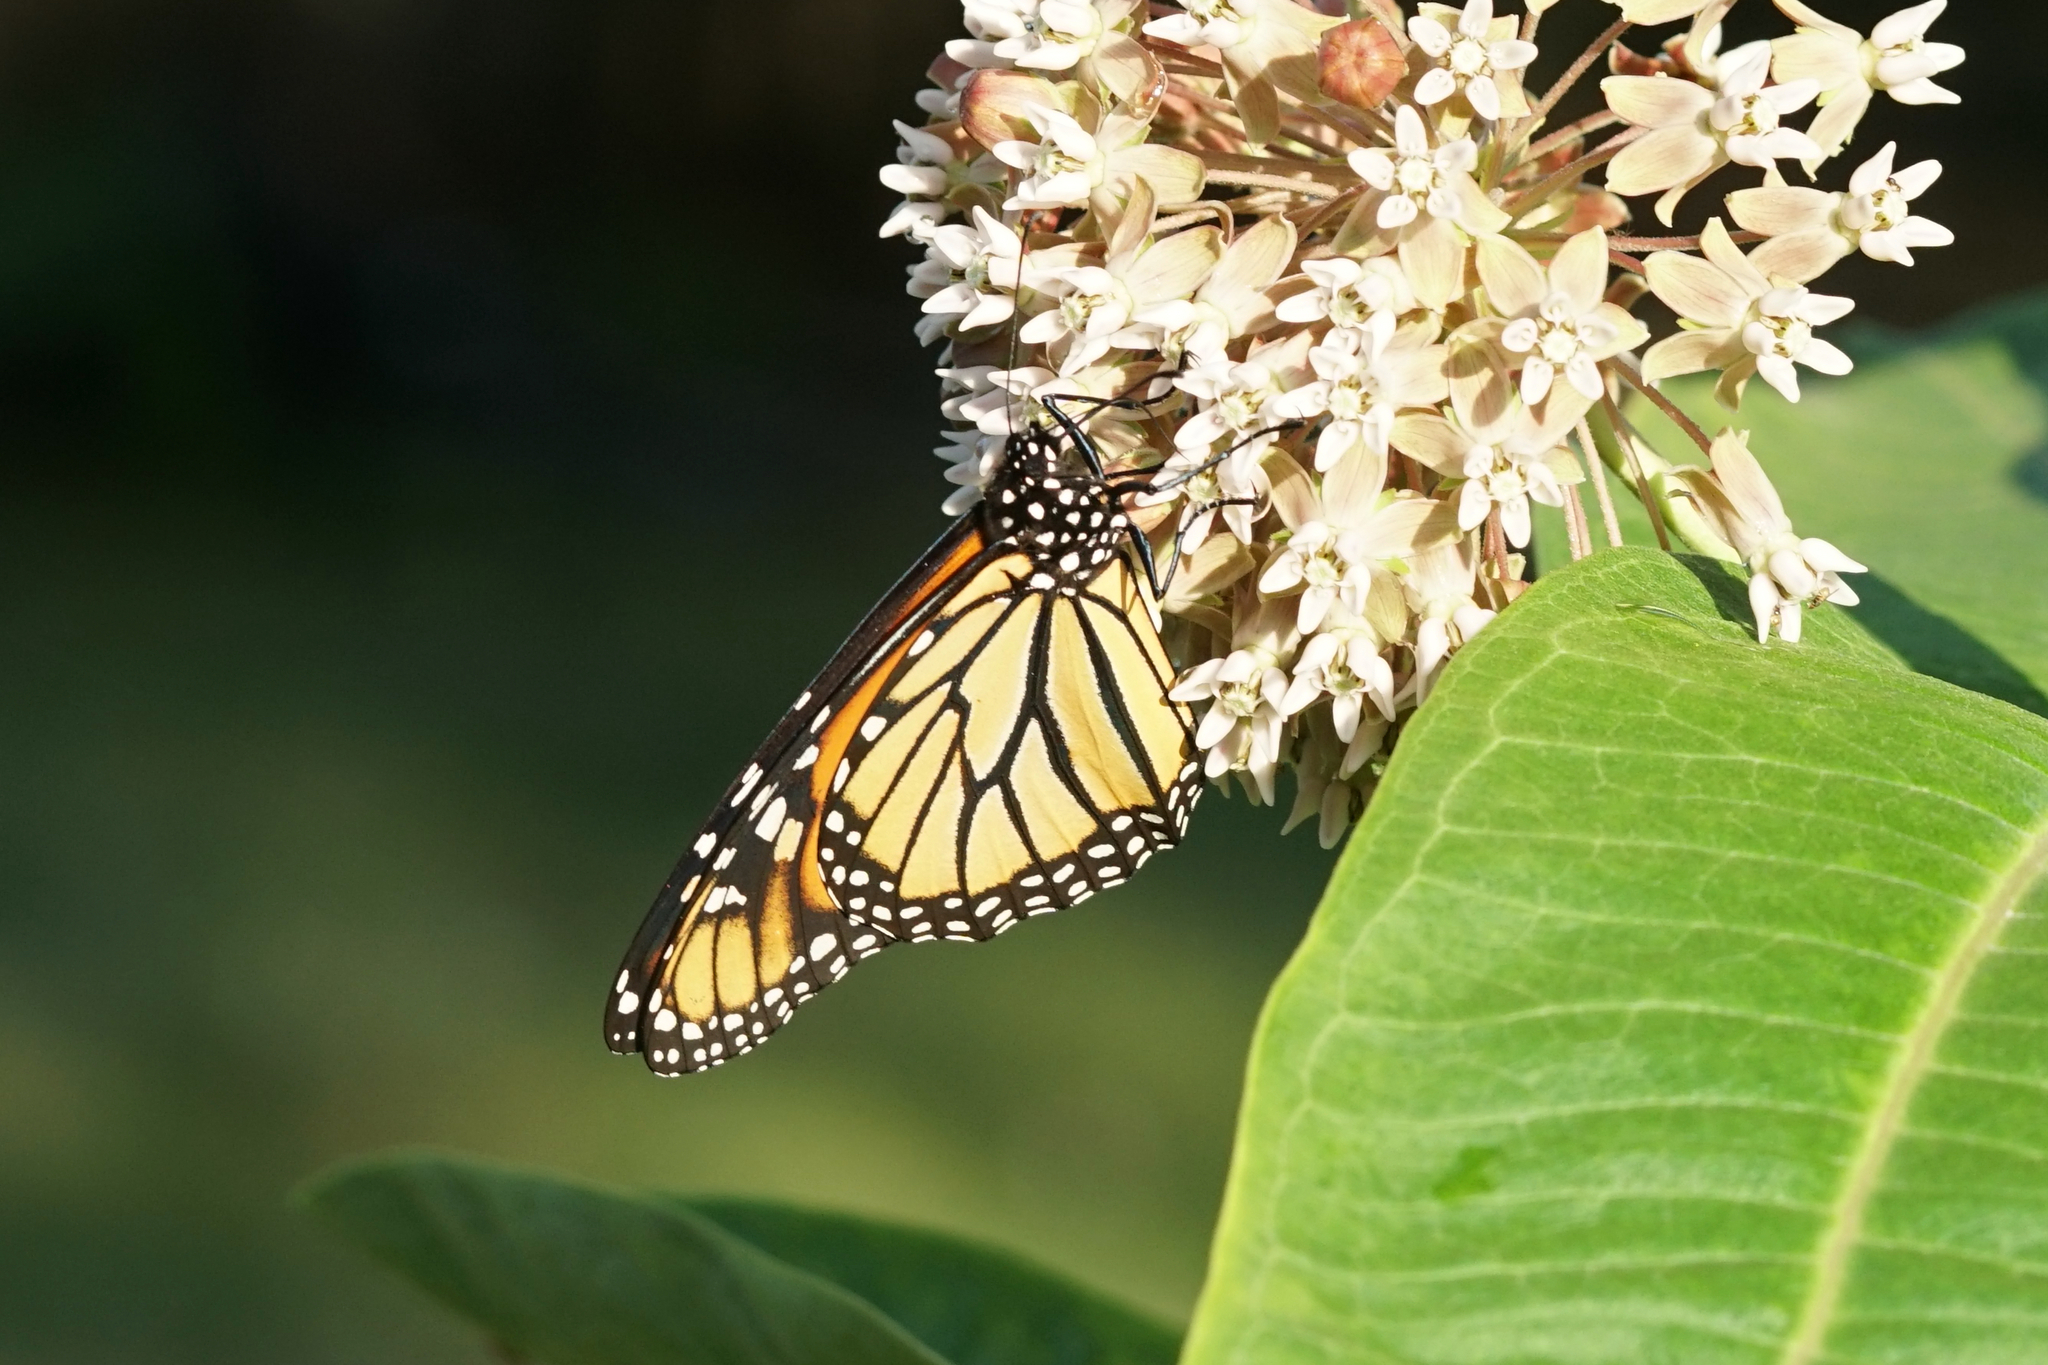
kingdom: Animalia
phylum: Arthropoda
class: Insecta
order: Lepidoptera
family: Nymphalidae
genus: Danaus
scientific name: Danaus plexippus
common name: Monarch
